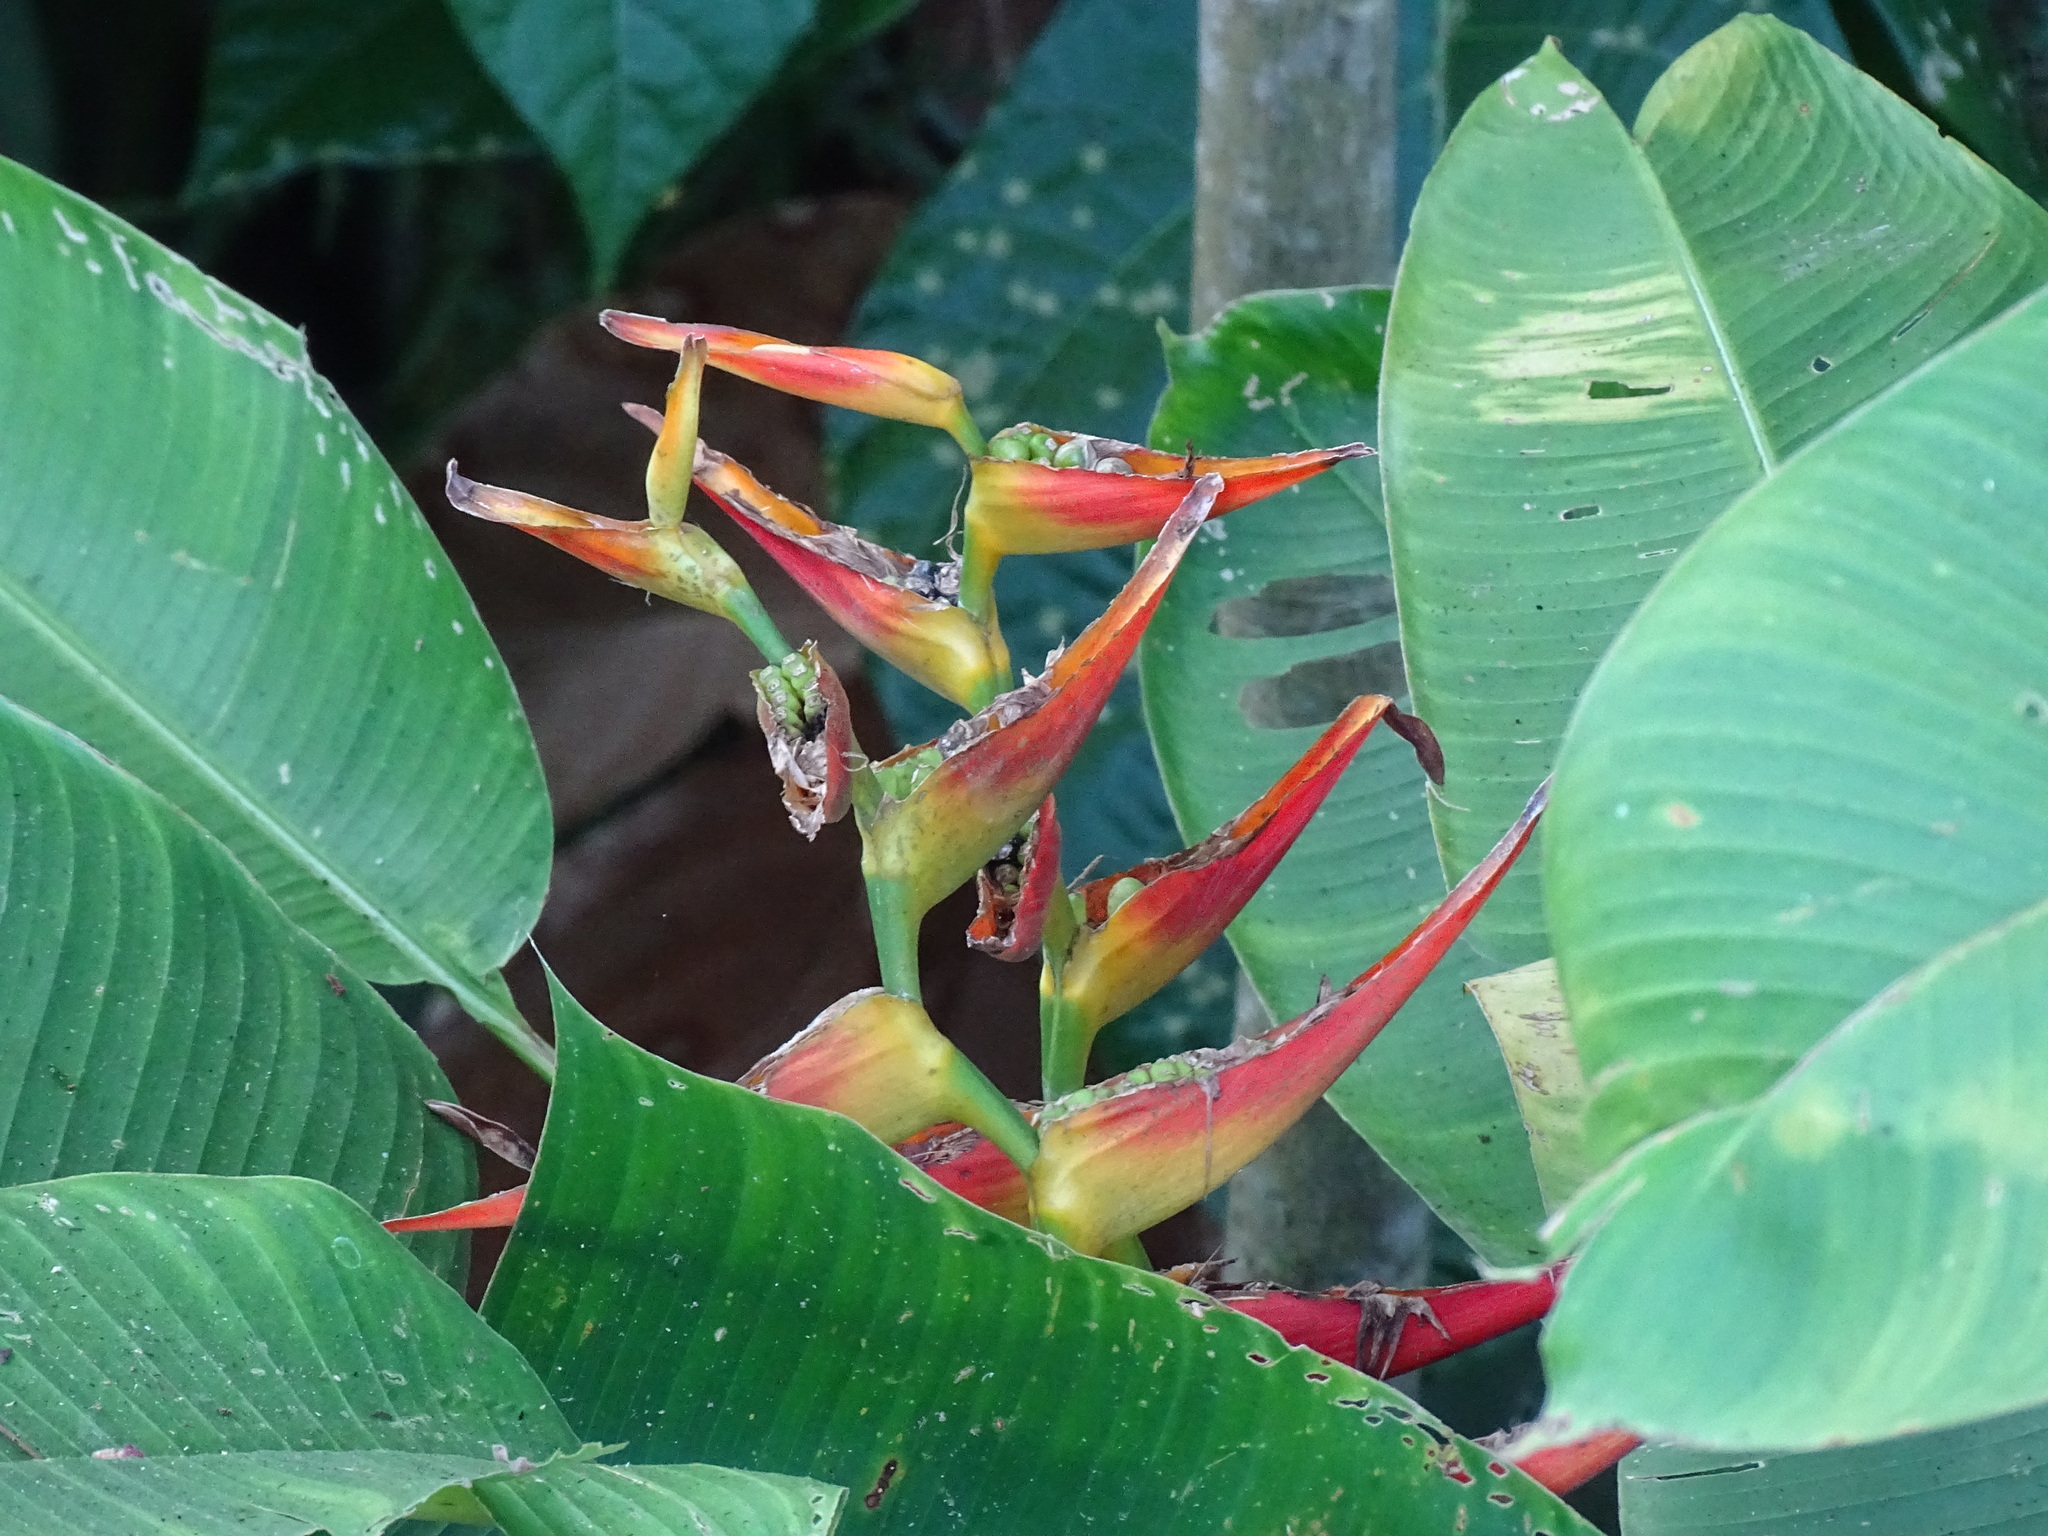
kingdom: Plantae
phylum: Tracheophyta
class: Liliopsida
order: Zingiberales
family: Heliconiaceae
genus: Heliconia
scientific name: Heliconia latispatha
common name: Expanded lobsterclaw
